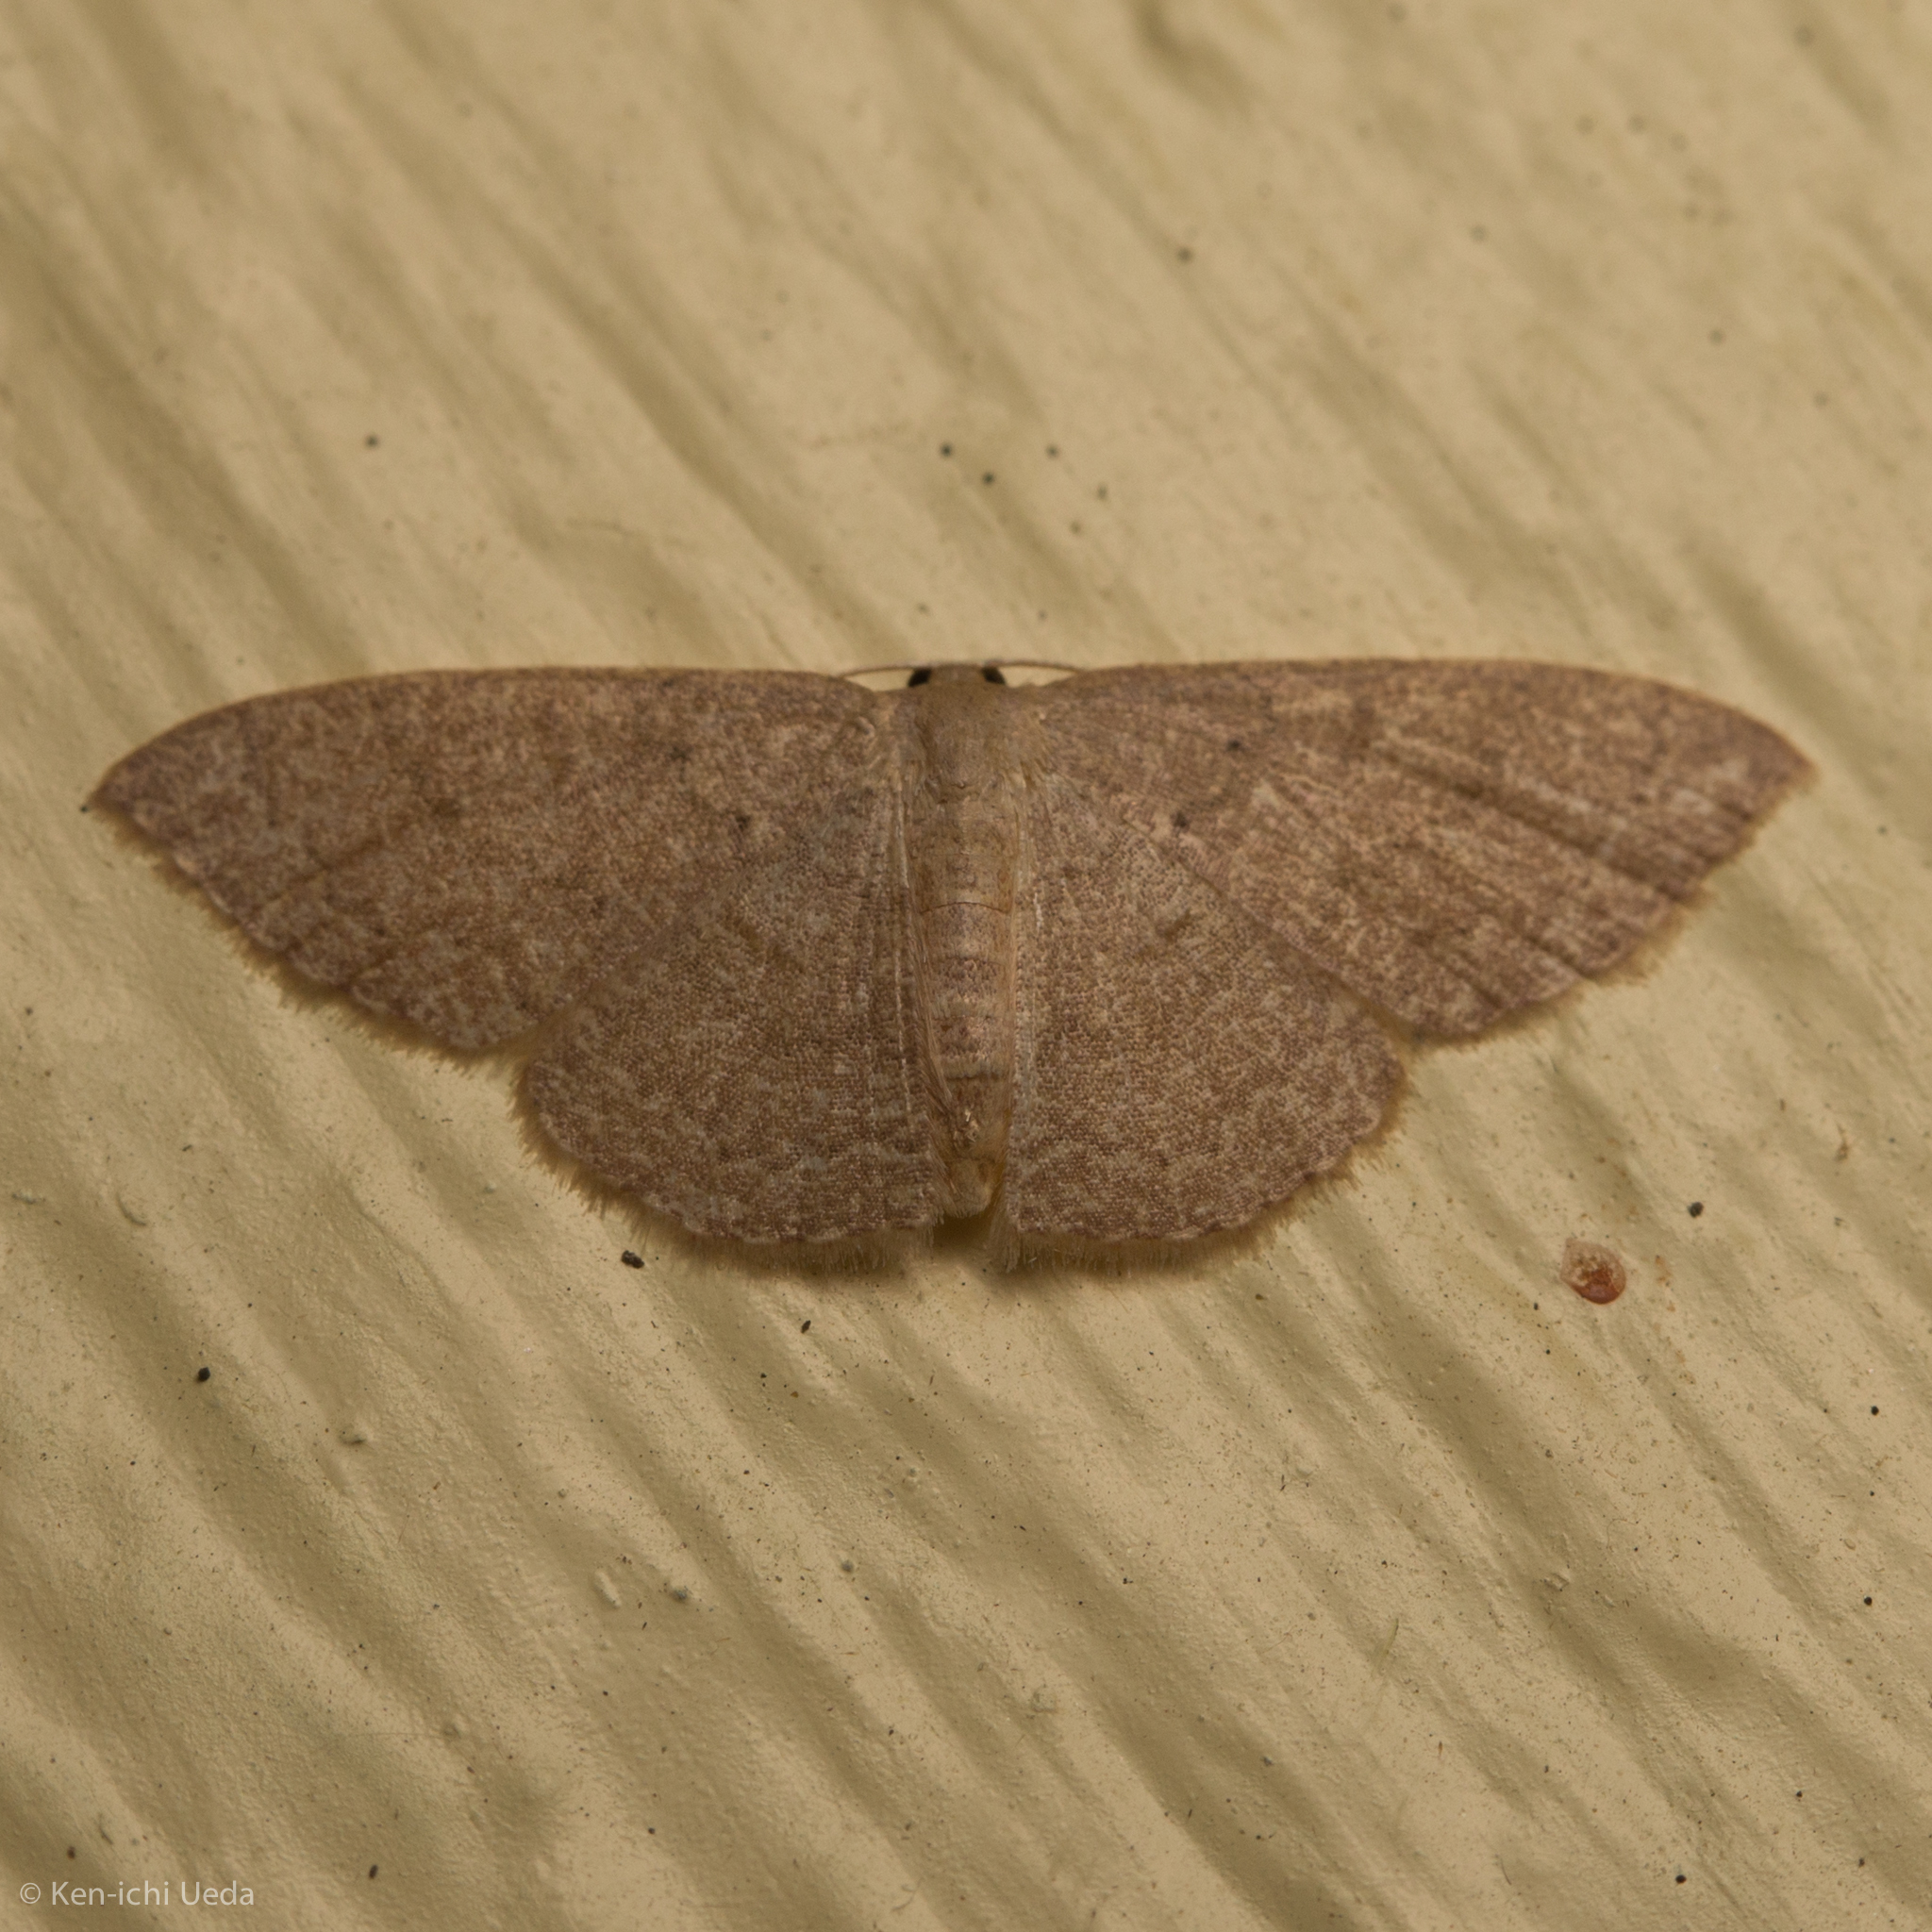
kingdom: Animalia
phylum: Arthropoda
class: Insecta
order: Lepidoptera
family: Geometridae
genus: Pleuroprucha
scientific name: Pleuroprucha insulsaria
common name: Common tan wave
